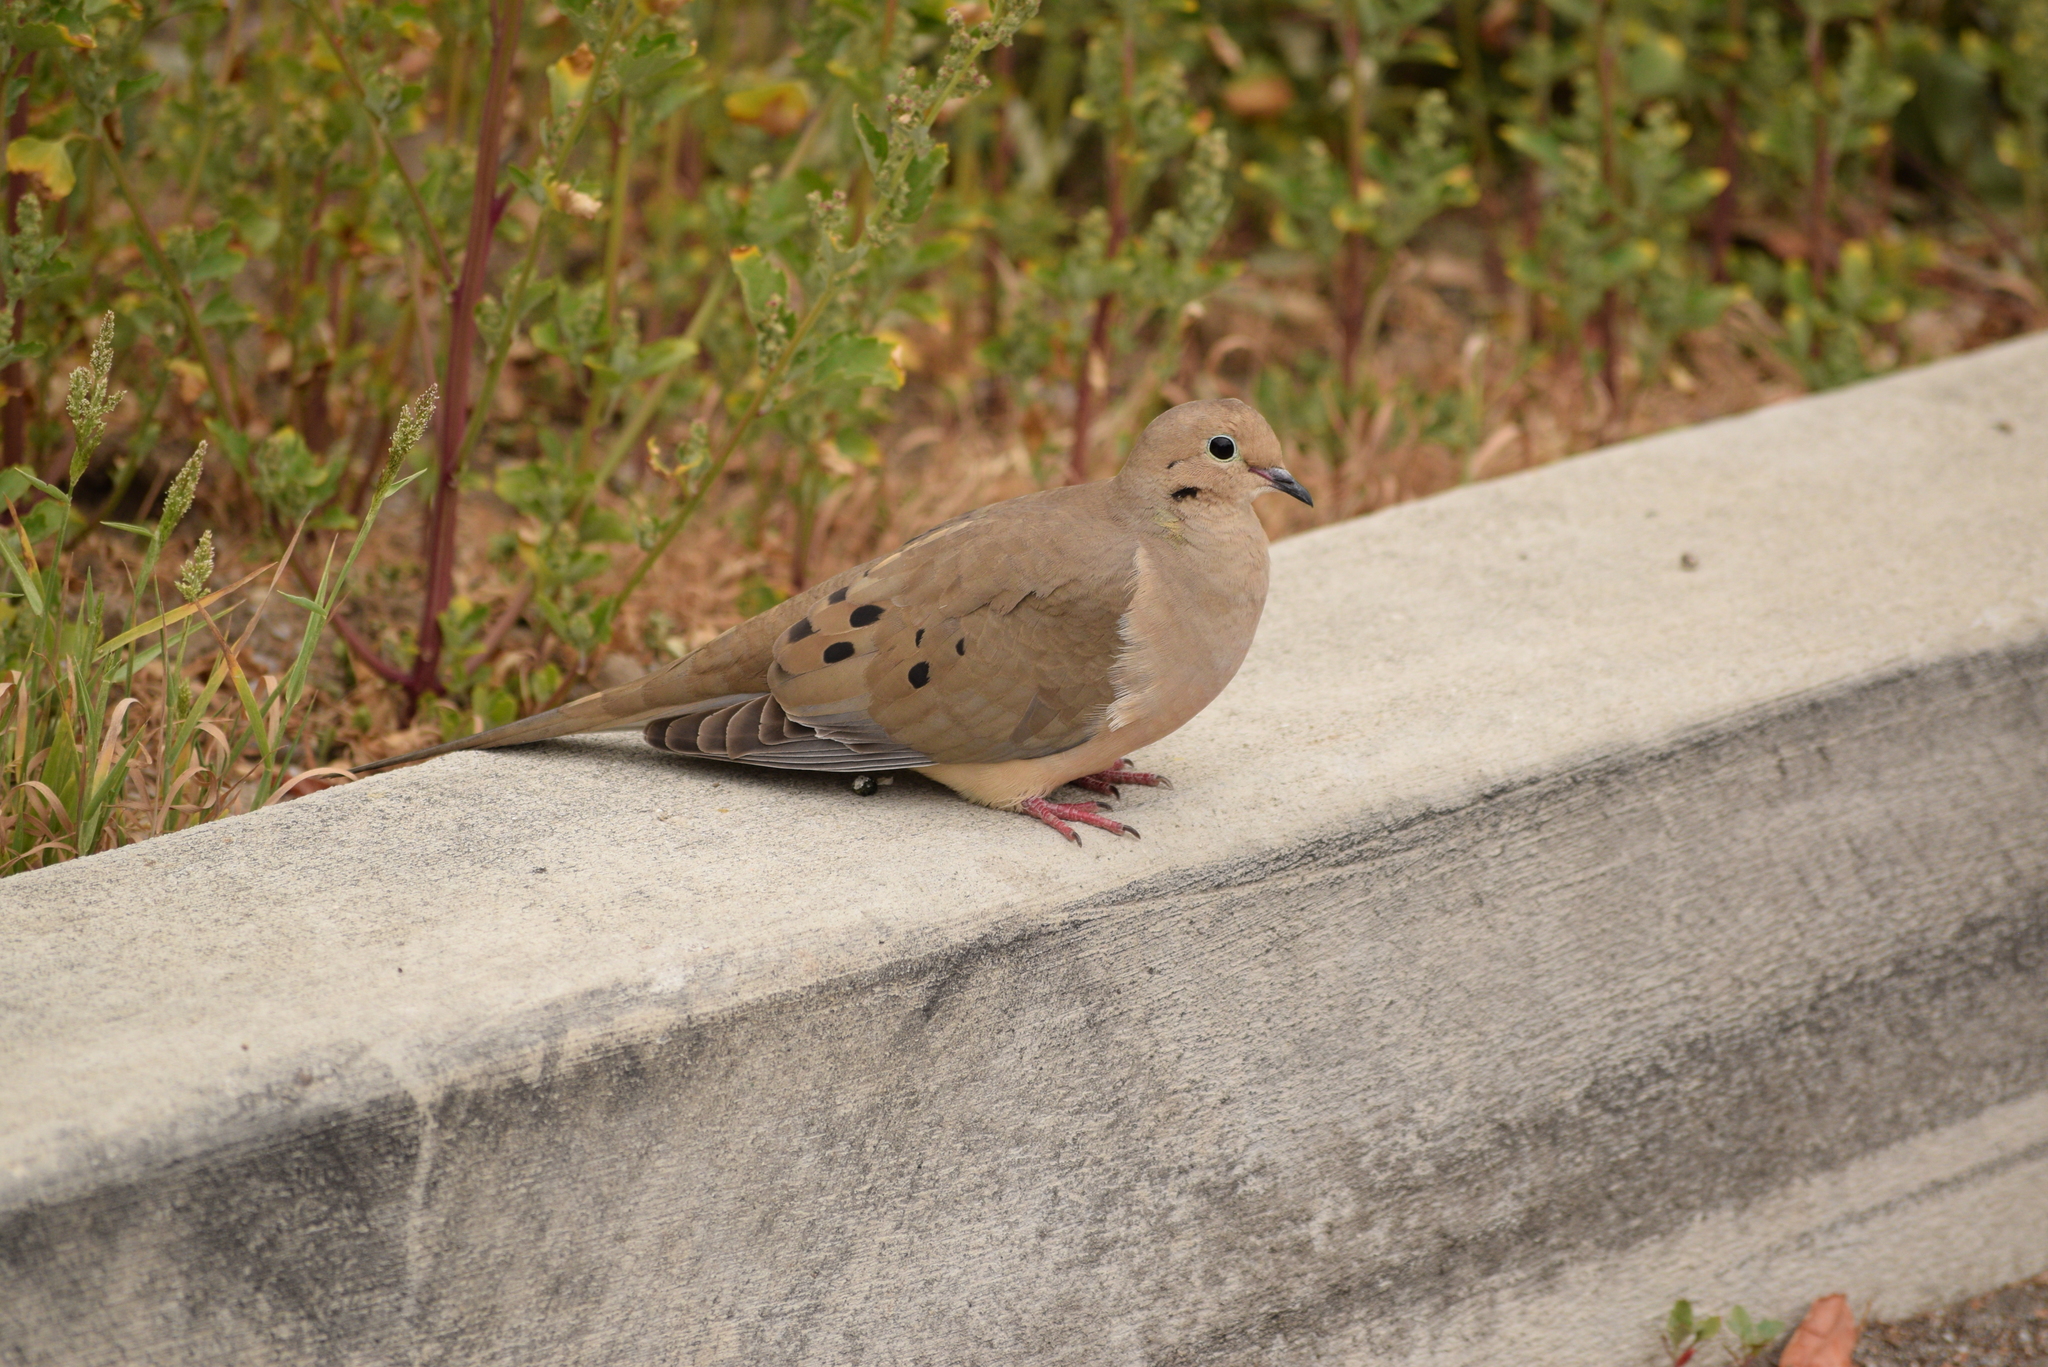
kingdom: Animalia
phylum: Chordata
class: Aves
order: Columbiformes
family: Columbidae
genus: Zenaida
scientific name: Zenaida macroura
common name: Mourning dove
